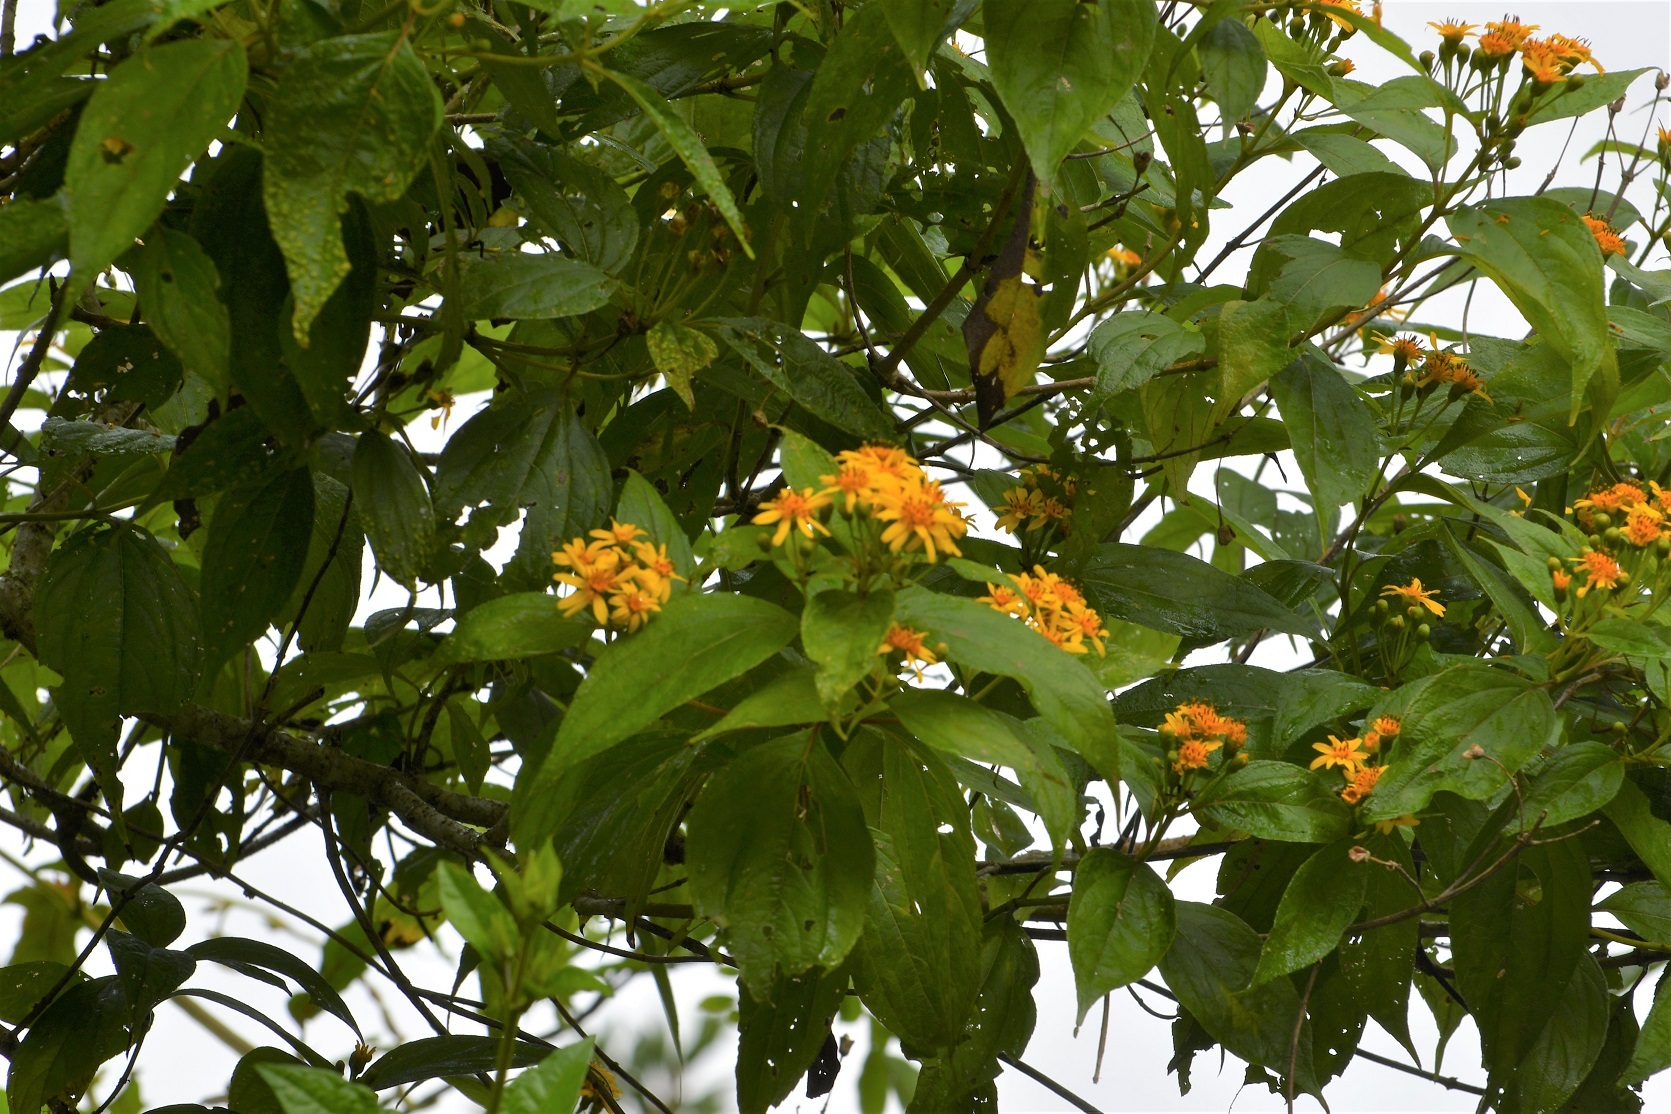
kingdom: Plantae
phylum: Tracheophyta
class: Magnoliopsida
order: Asterales
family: Asteraceae
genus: Perymenium
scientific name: Perymenium grande
